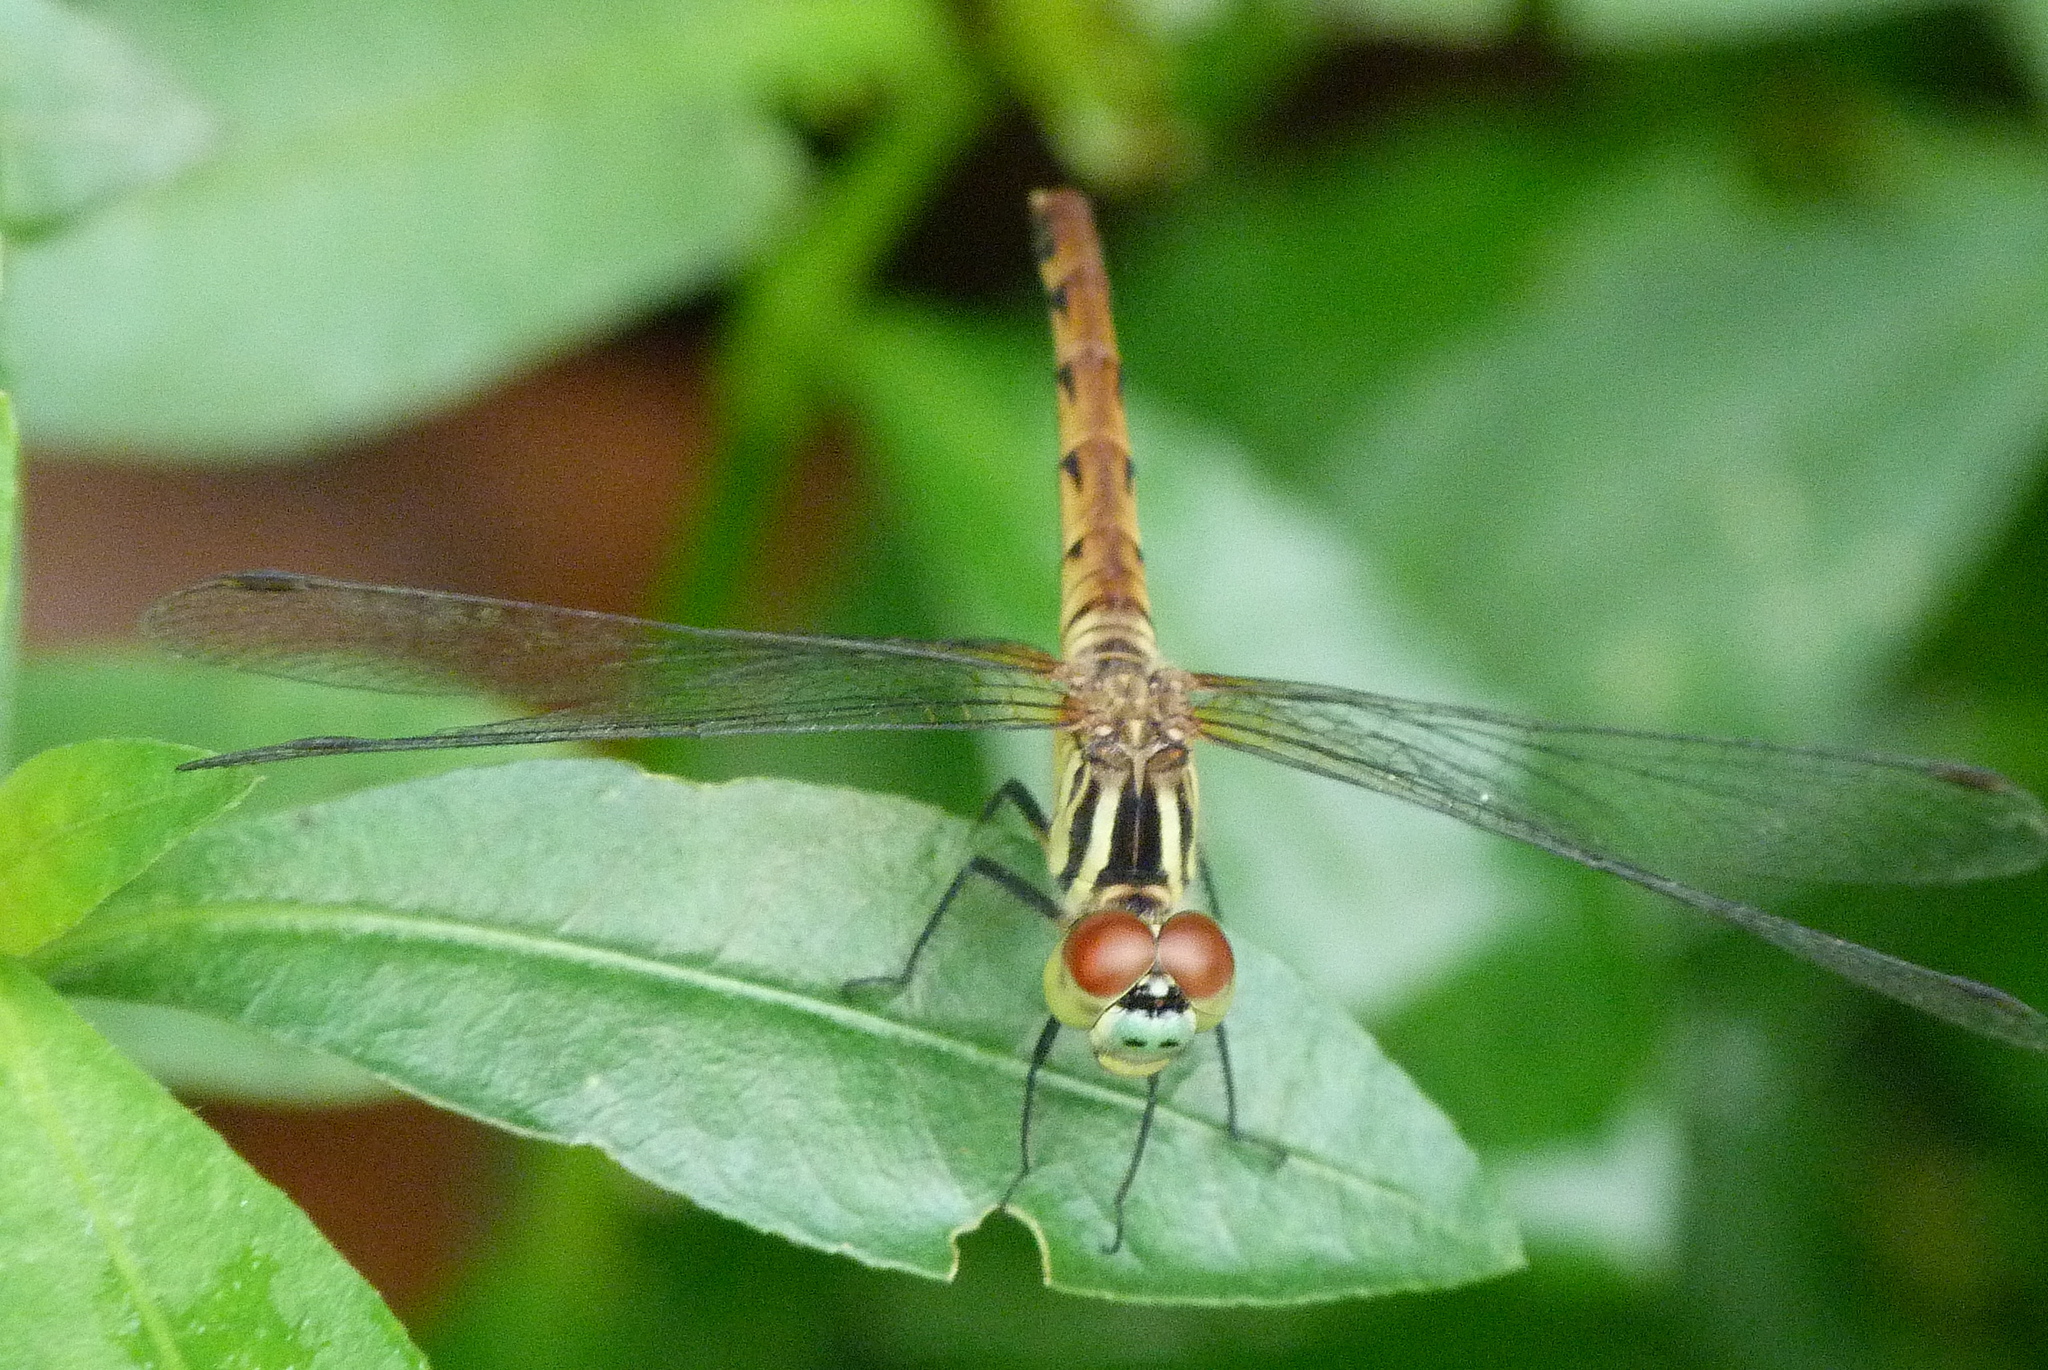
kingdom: Animalia
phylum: Arthropoda
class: Insecta
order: Odonata
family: Libellulidae
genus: Sympetrum
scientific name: Sympetrum kunckeli
